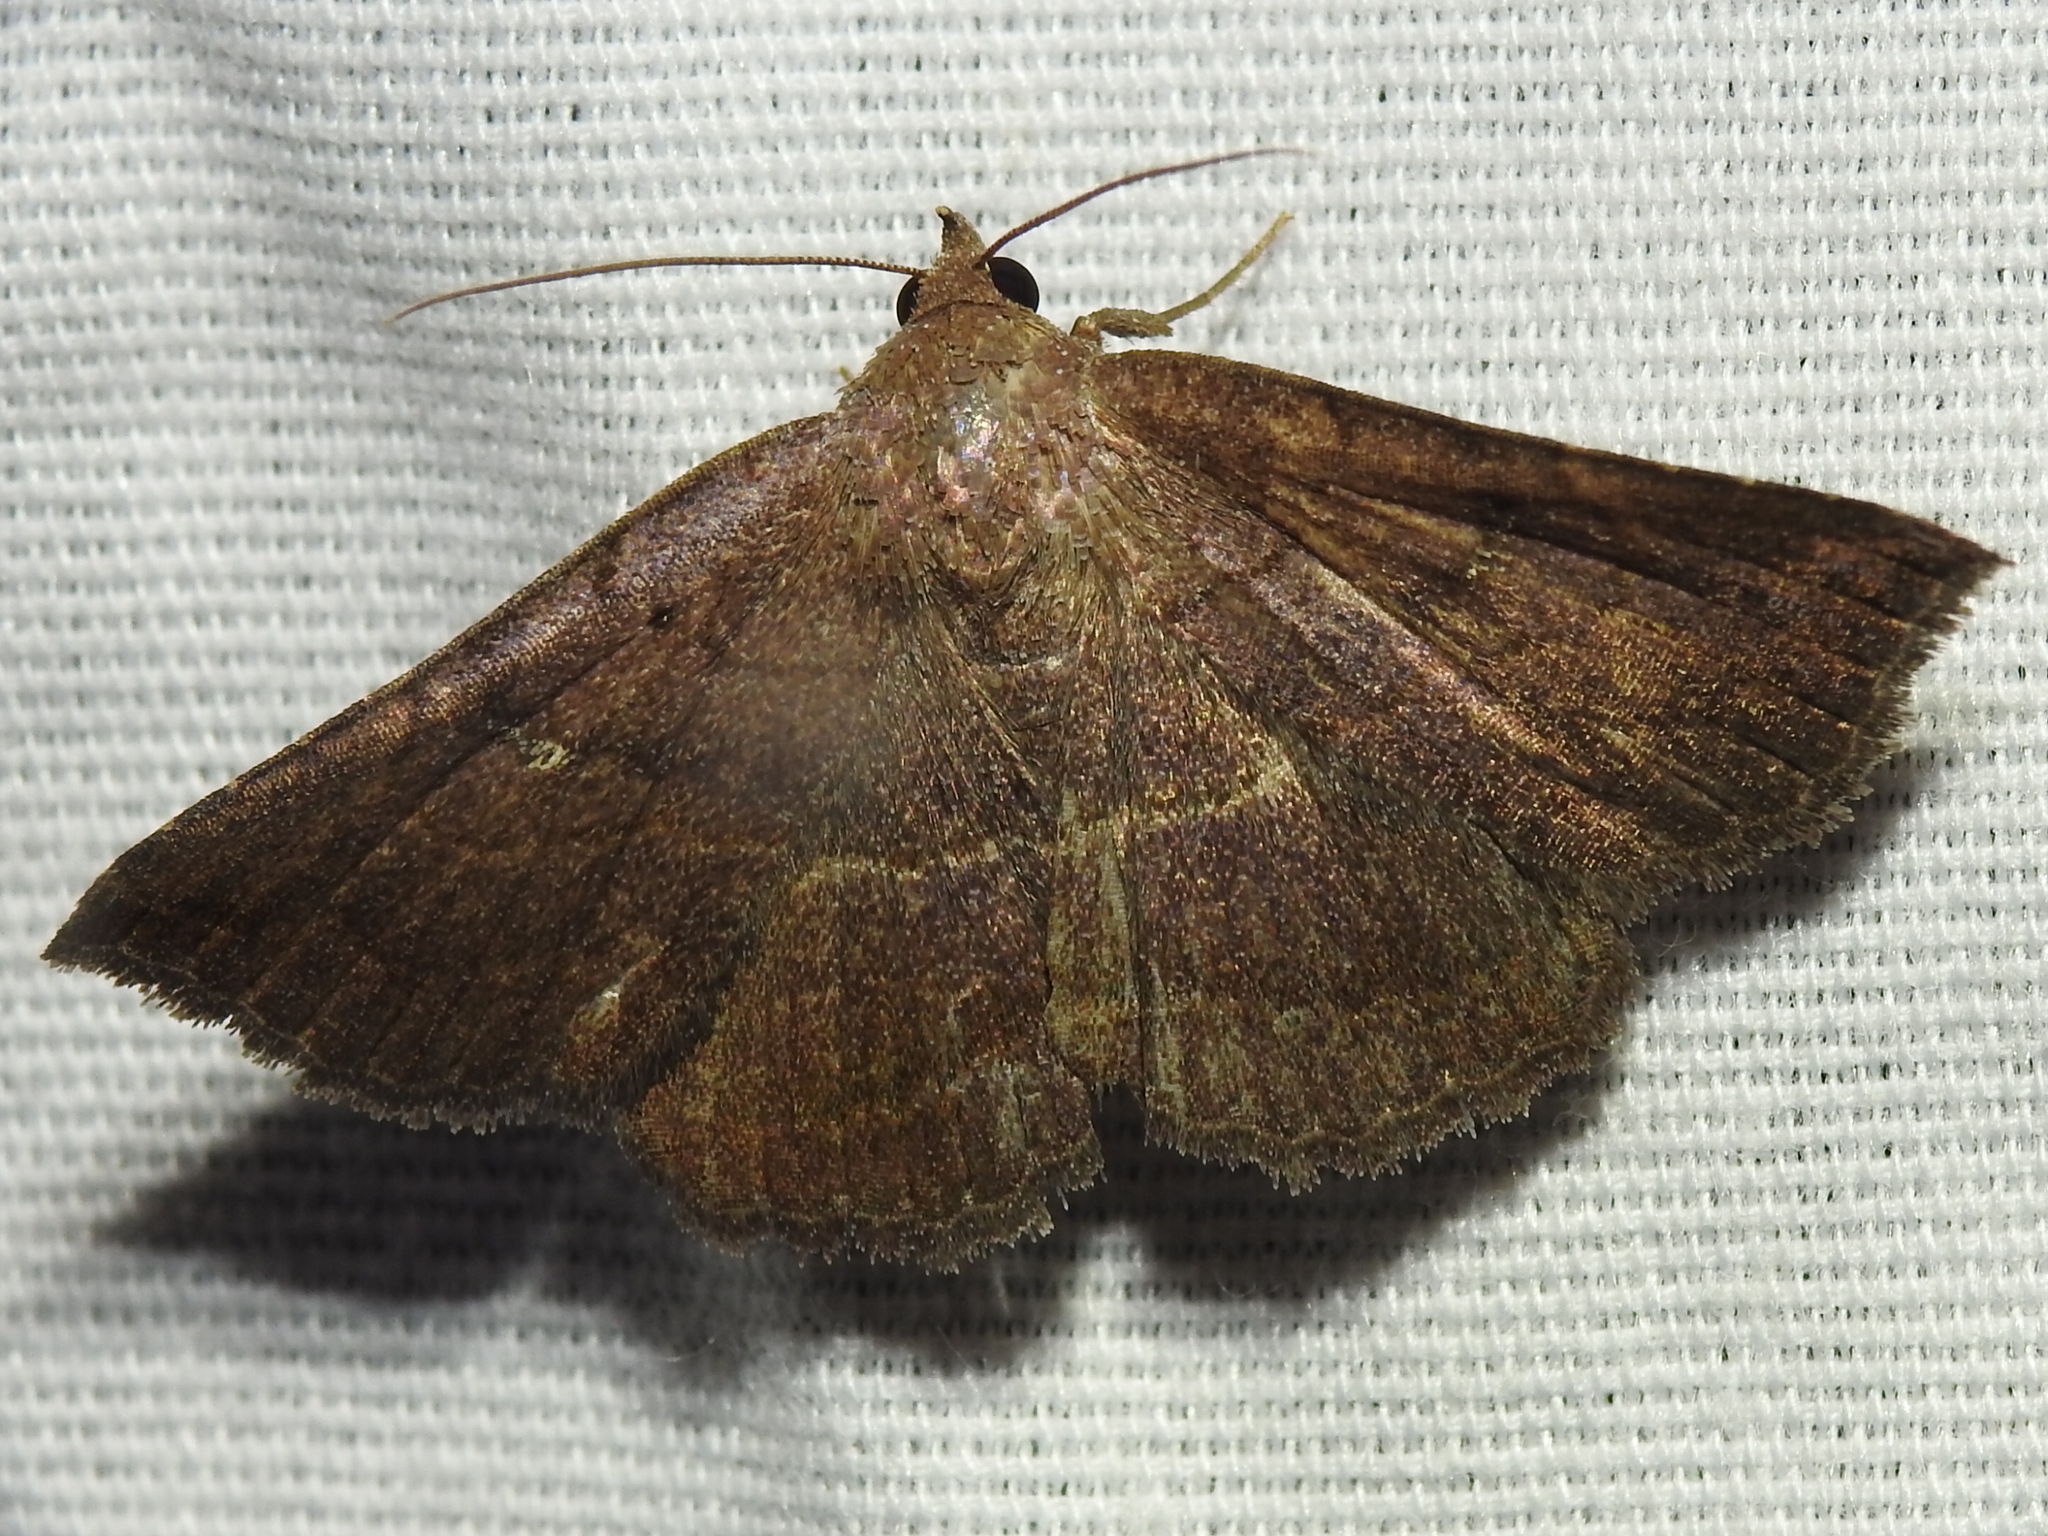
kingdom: Animalia
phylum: Arthropoda
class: Insecta
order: Lepidoptera
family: Erebidae
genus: Lesmone
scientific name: Lesmone detrahens
